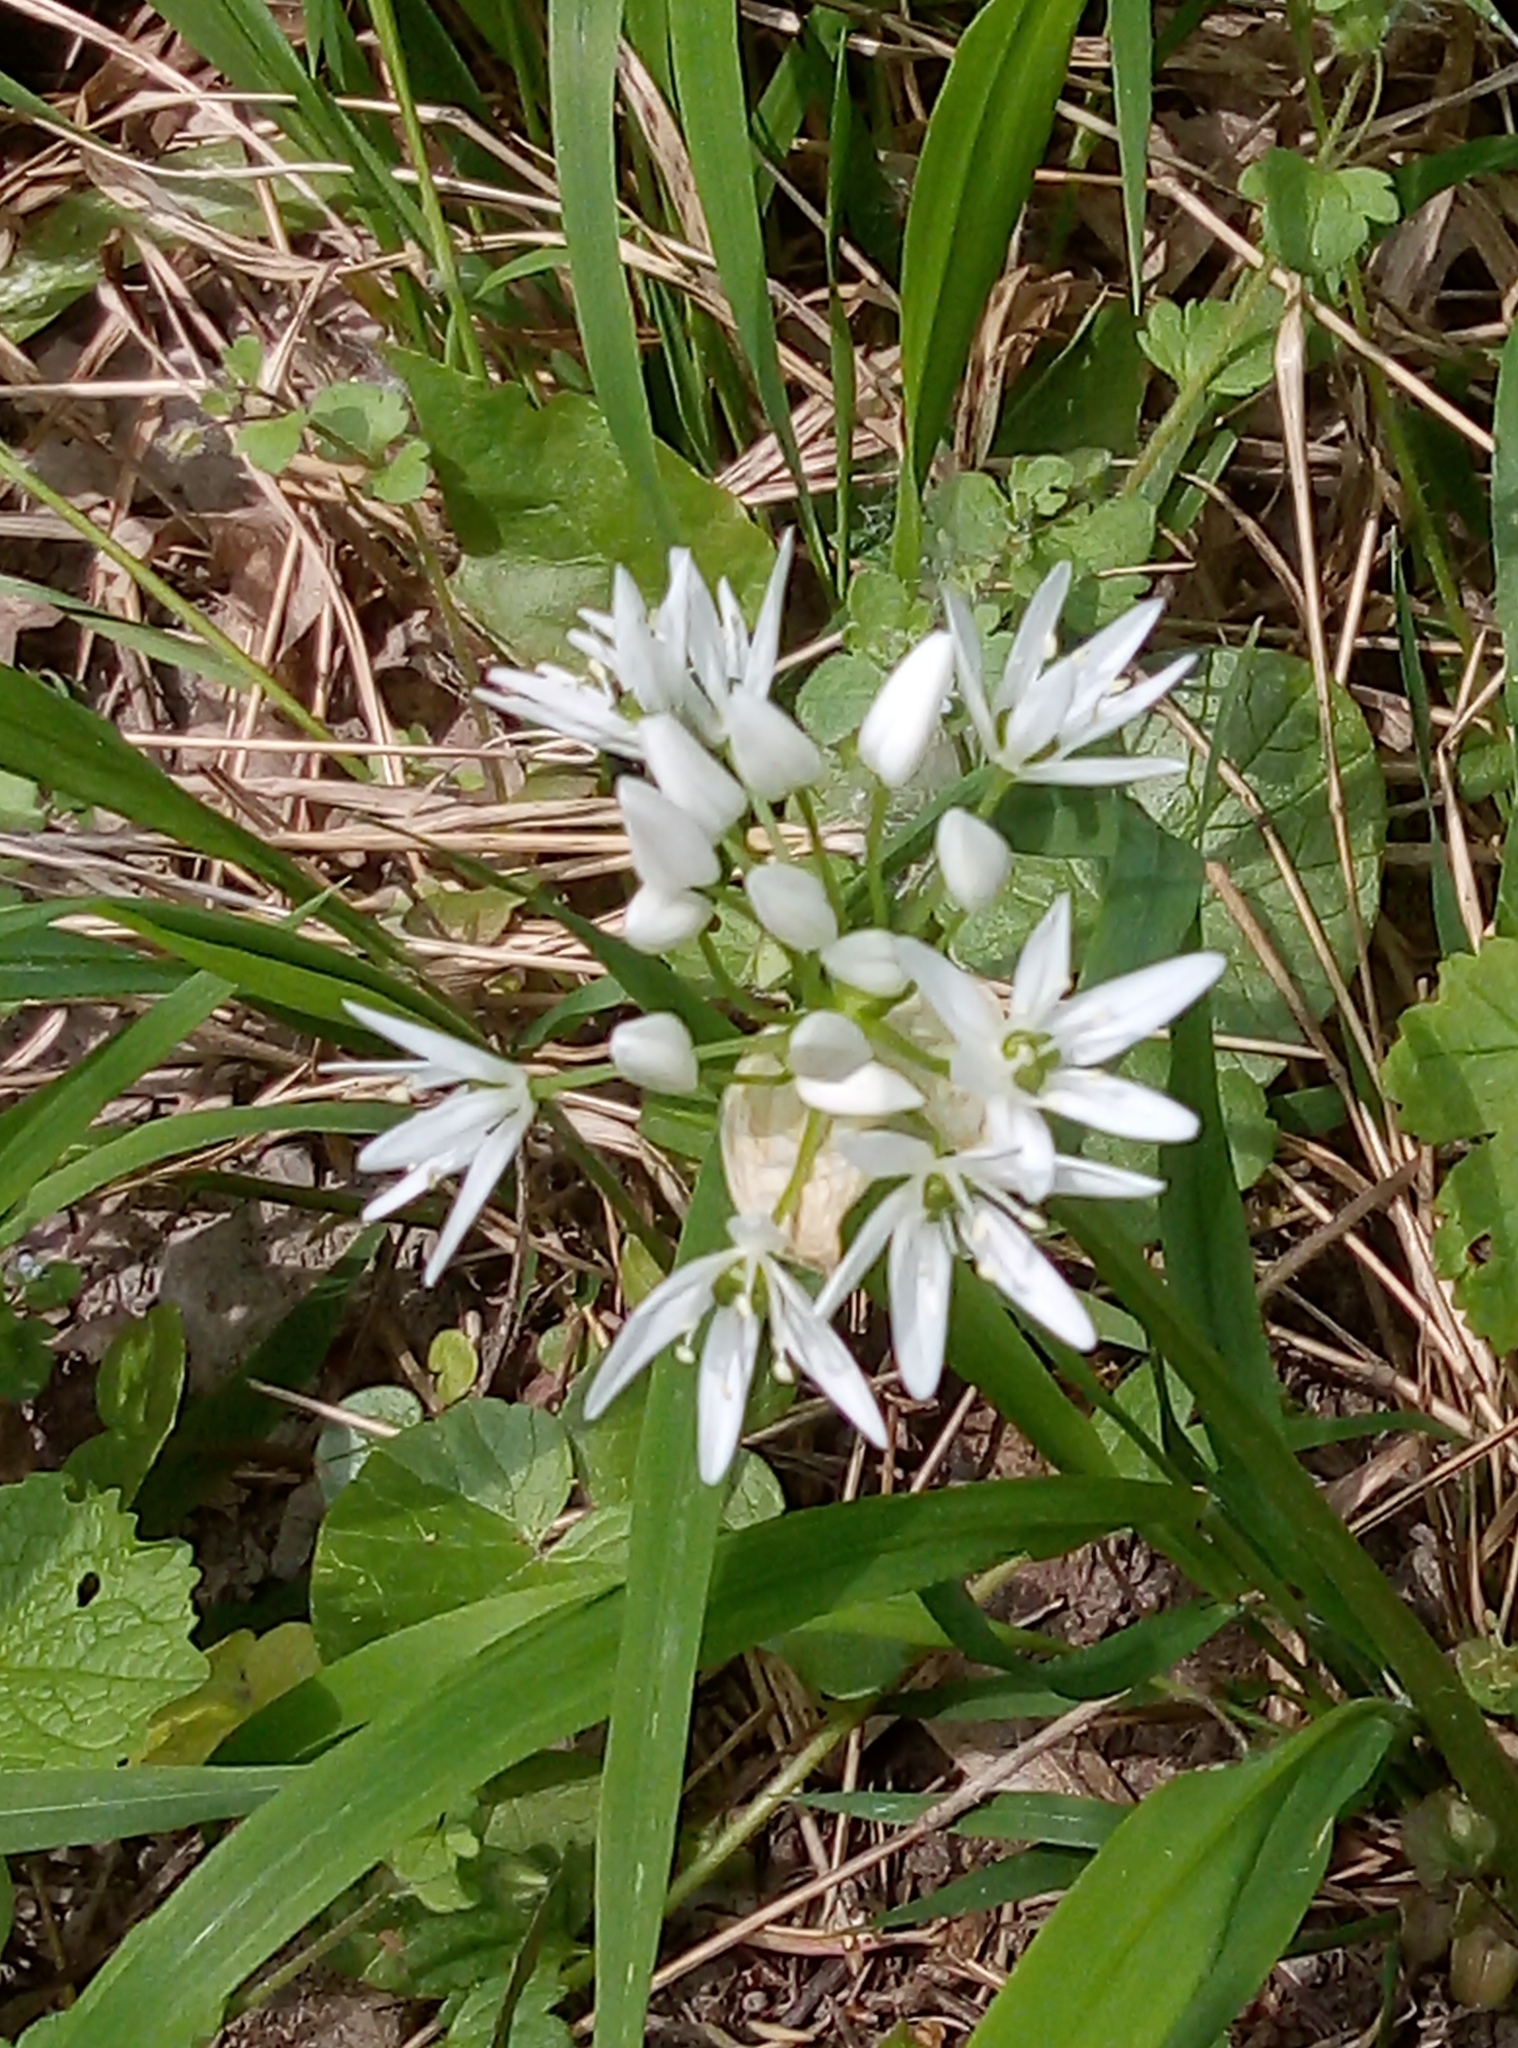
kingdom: Plantae
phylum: Tracheophyta
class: Liliopsida
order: Asparagales
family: Amaryllidaceae
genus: Allium
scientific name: Allium ursinum
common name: Ramsons
